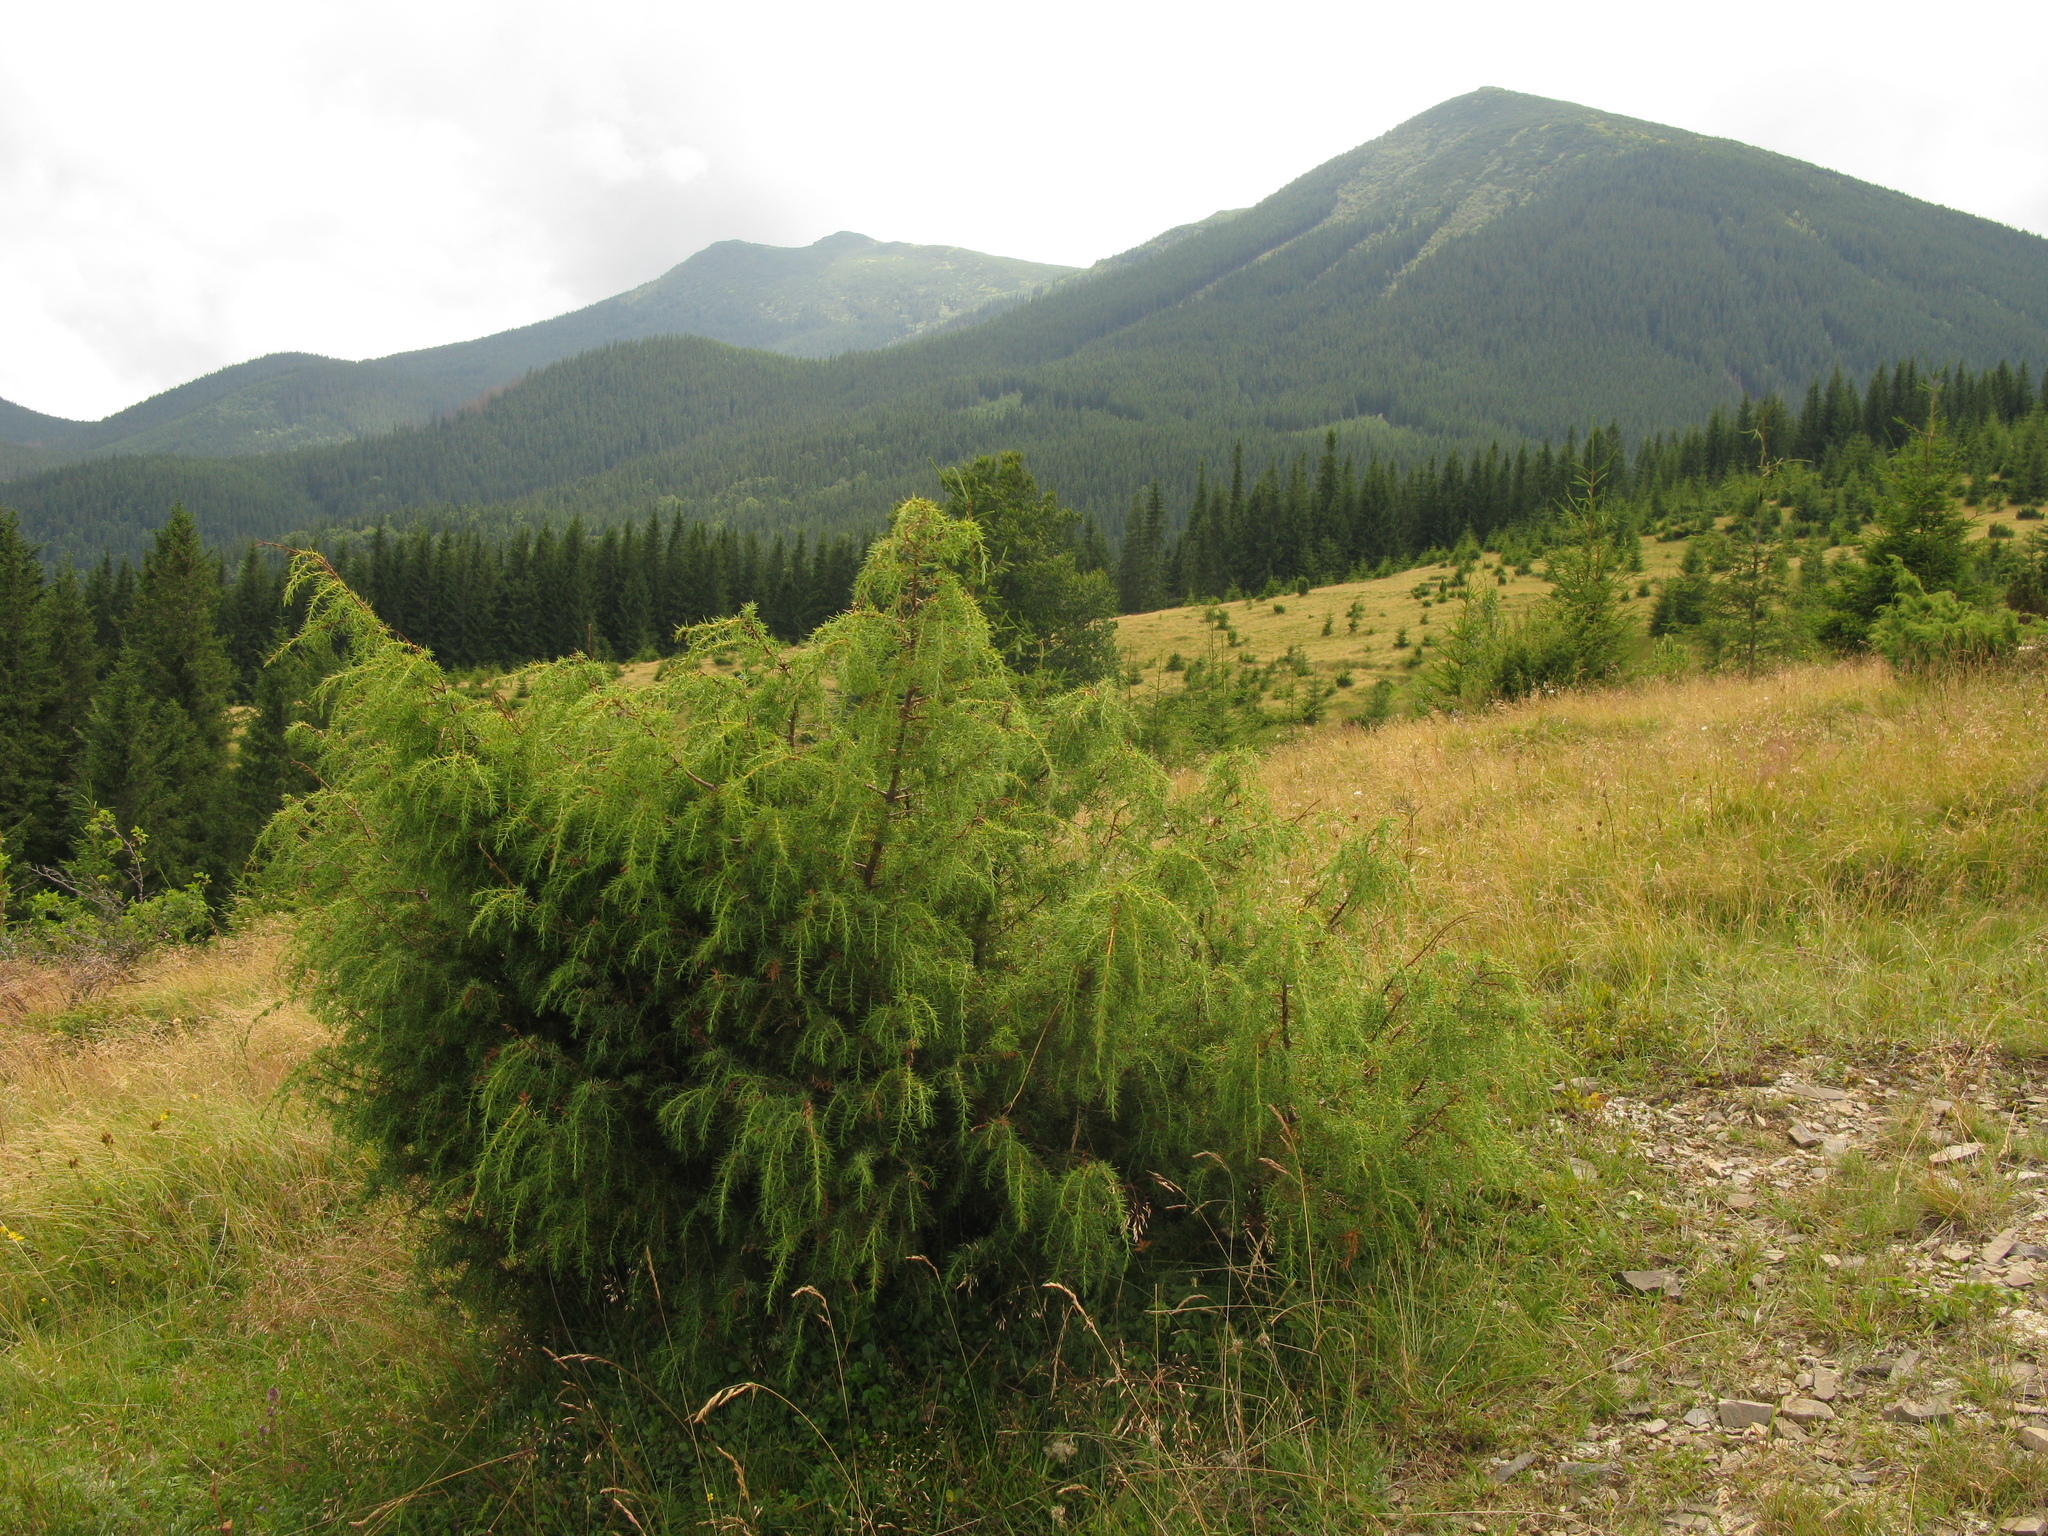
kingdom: Plantae
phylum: Tracheophyta
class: Pinopsida
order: Pinales
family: Cupressaceae
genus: Juniperus
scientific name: Juniperus communis
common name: Common juniper
